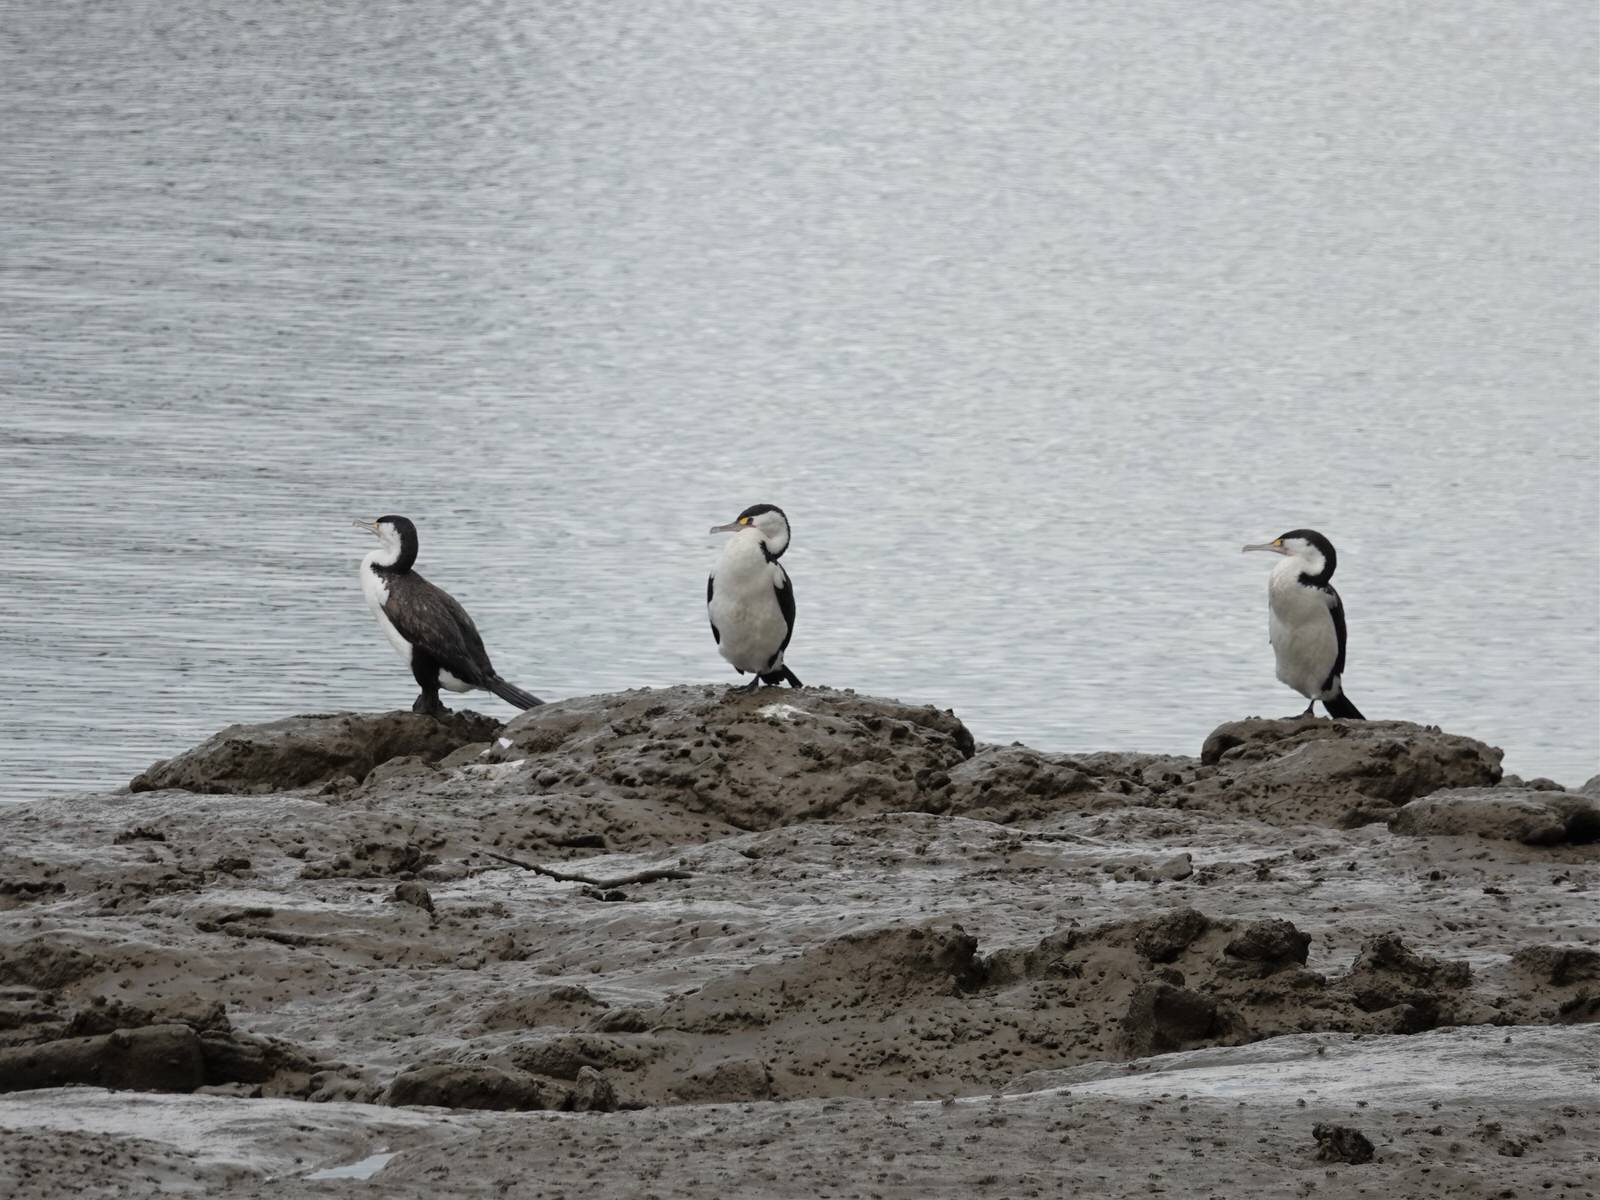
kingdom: Animalia
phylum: Chordata
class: Aves
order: Suliformes
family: Phalacrocoracidae
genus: Phalacrocorax
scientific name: Phalacrocorax varius
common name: Pied cormorant
